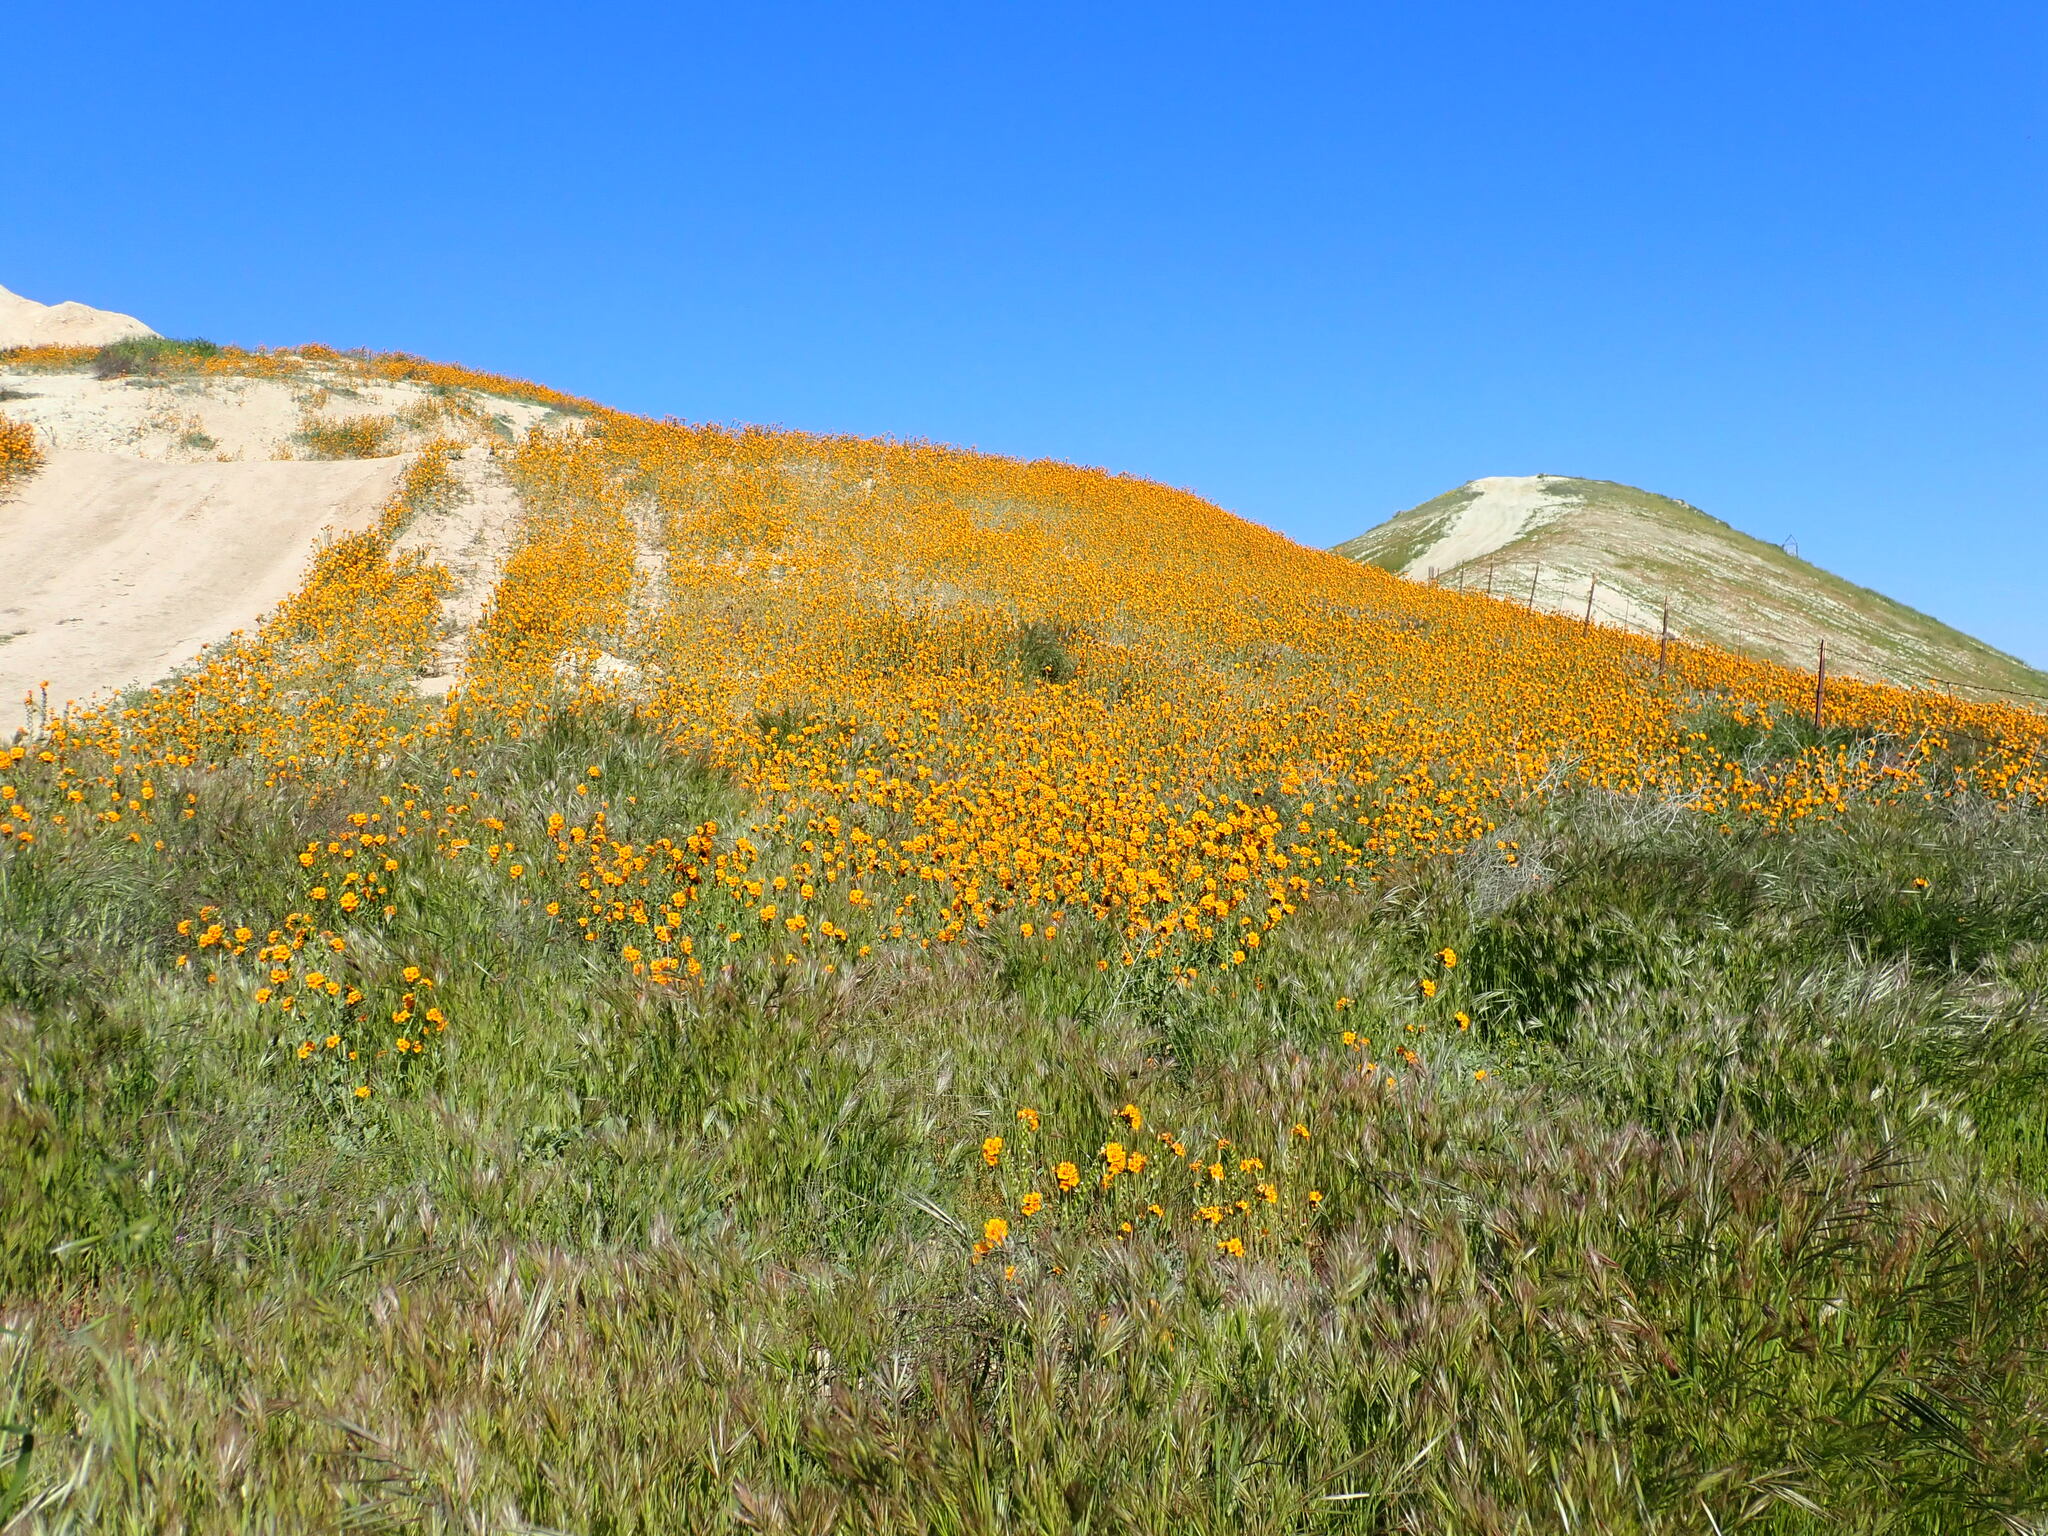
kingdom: Plantae
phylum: Tracheophyta
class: Magnoliopsida
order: Boraginales
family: Boraginaceae
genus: Amsinckia
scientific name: Amsinckia vernicosa
